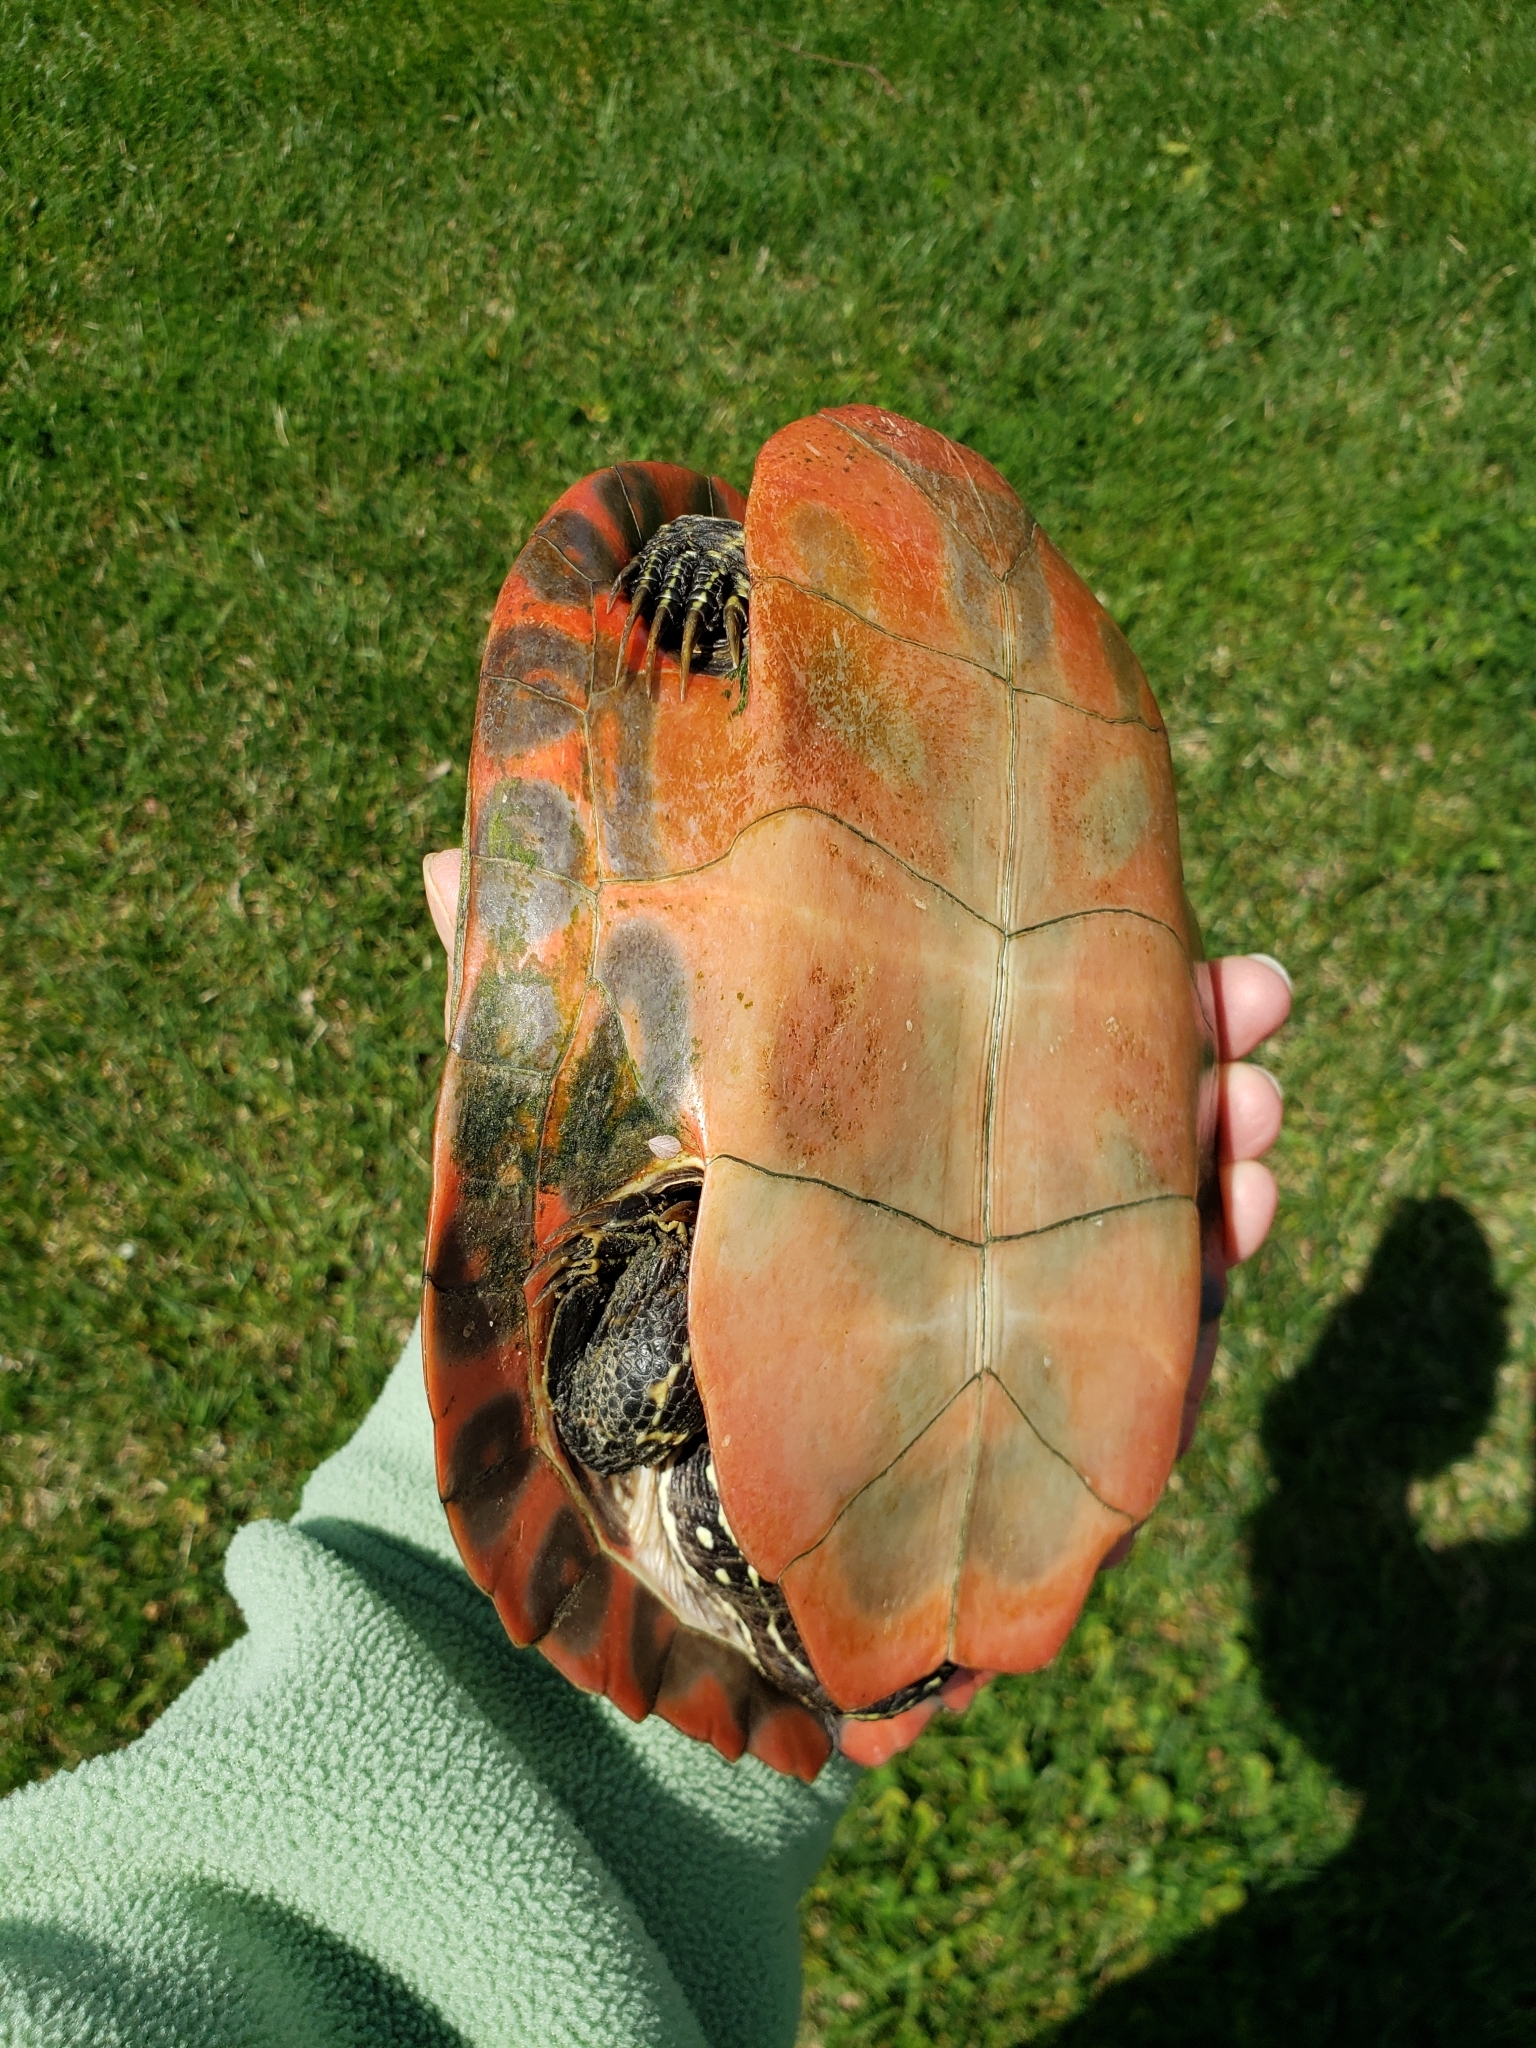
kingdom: Animalia
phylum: Chordata
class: Testudines
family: Emydidae
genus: Pseudemys
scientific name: Pseudemys rubriventris
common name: American red-bellied turtle
